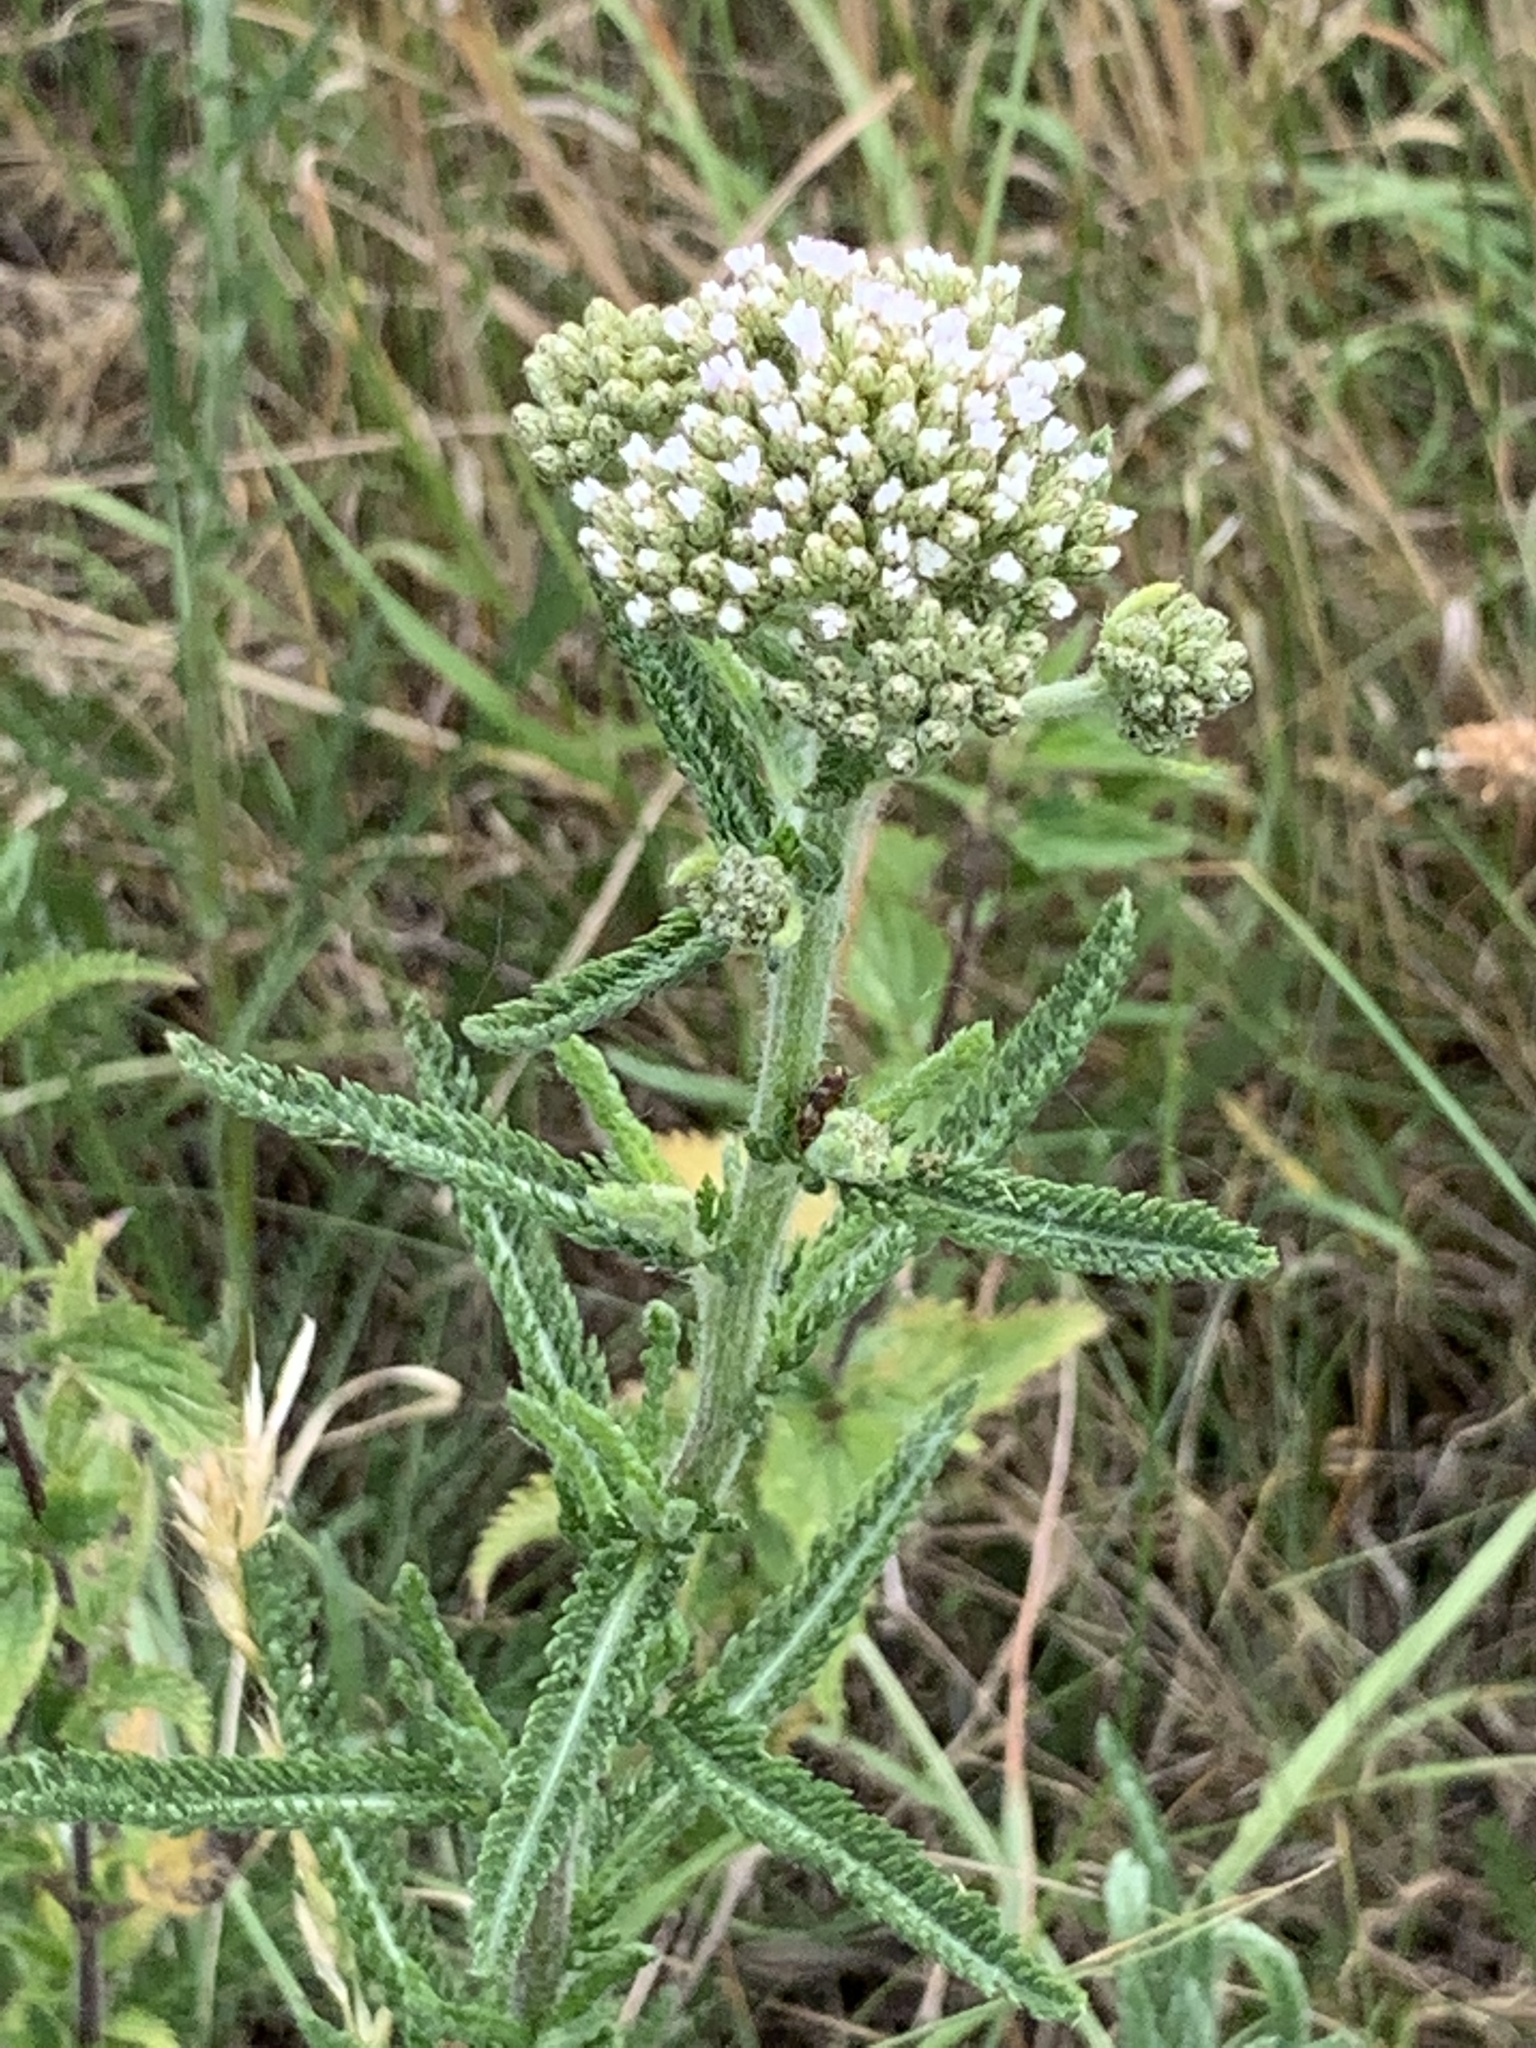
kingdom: Plantae
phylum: Tracheophyta
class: Magnoliopsida
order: Asterales
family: Asteraceae
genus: Achillea
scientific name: Achillea millefolium
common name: Yarrow
